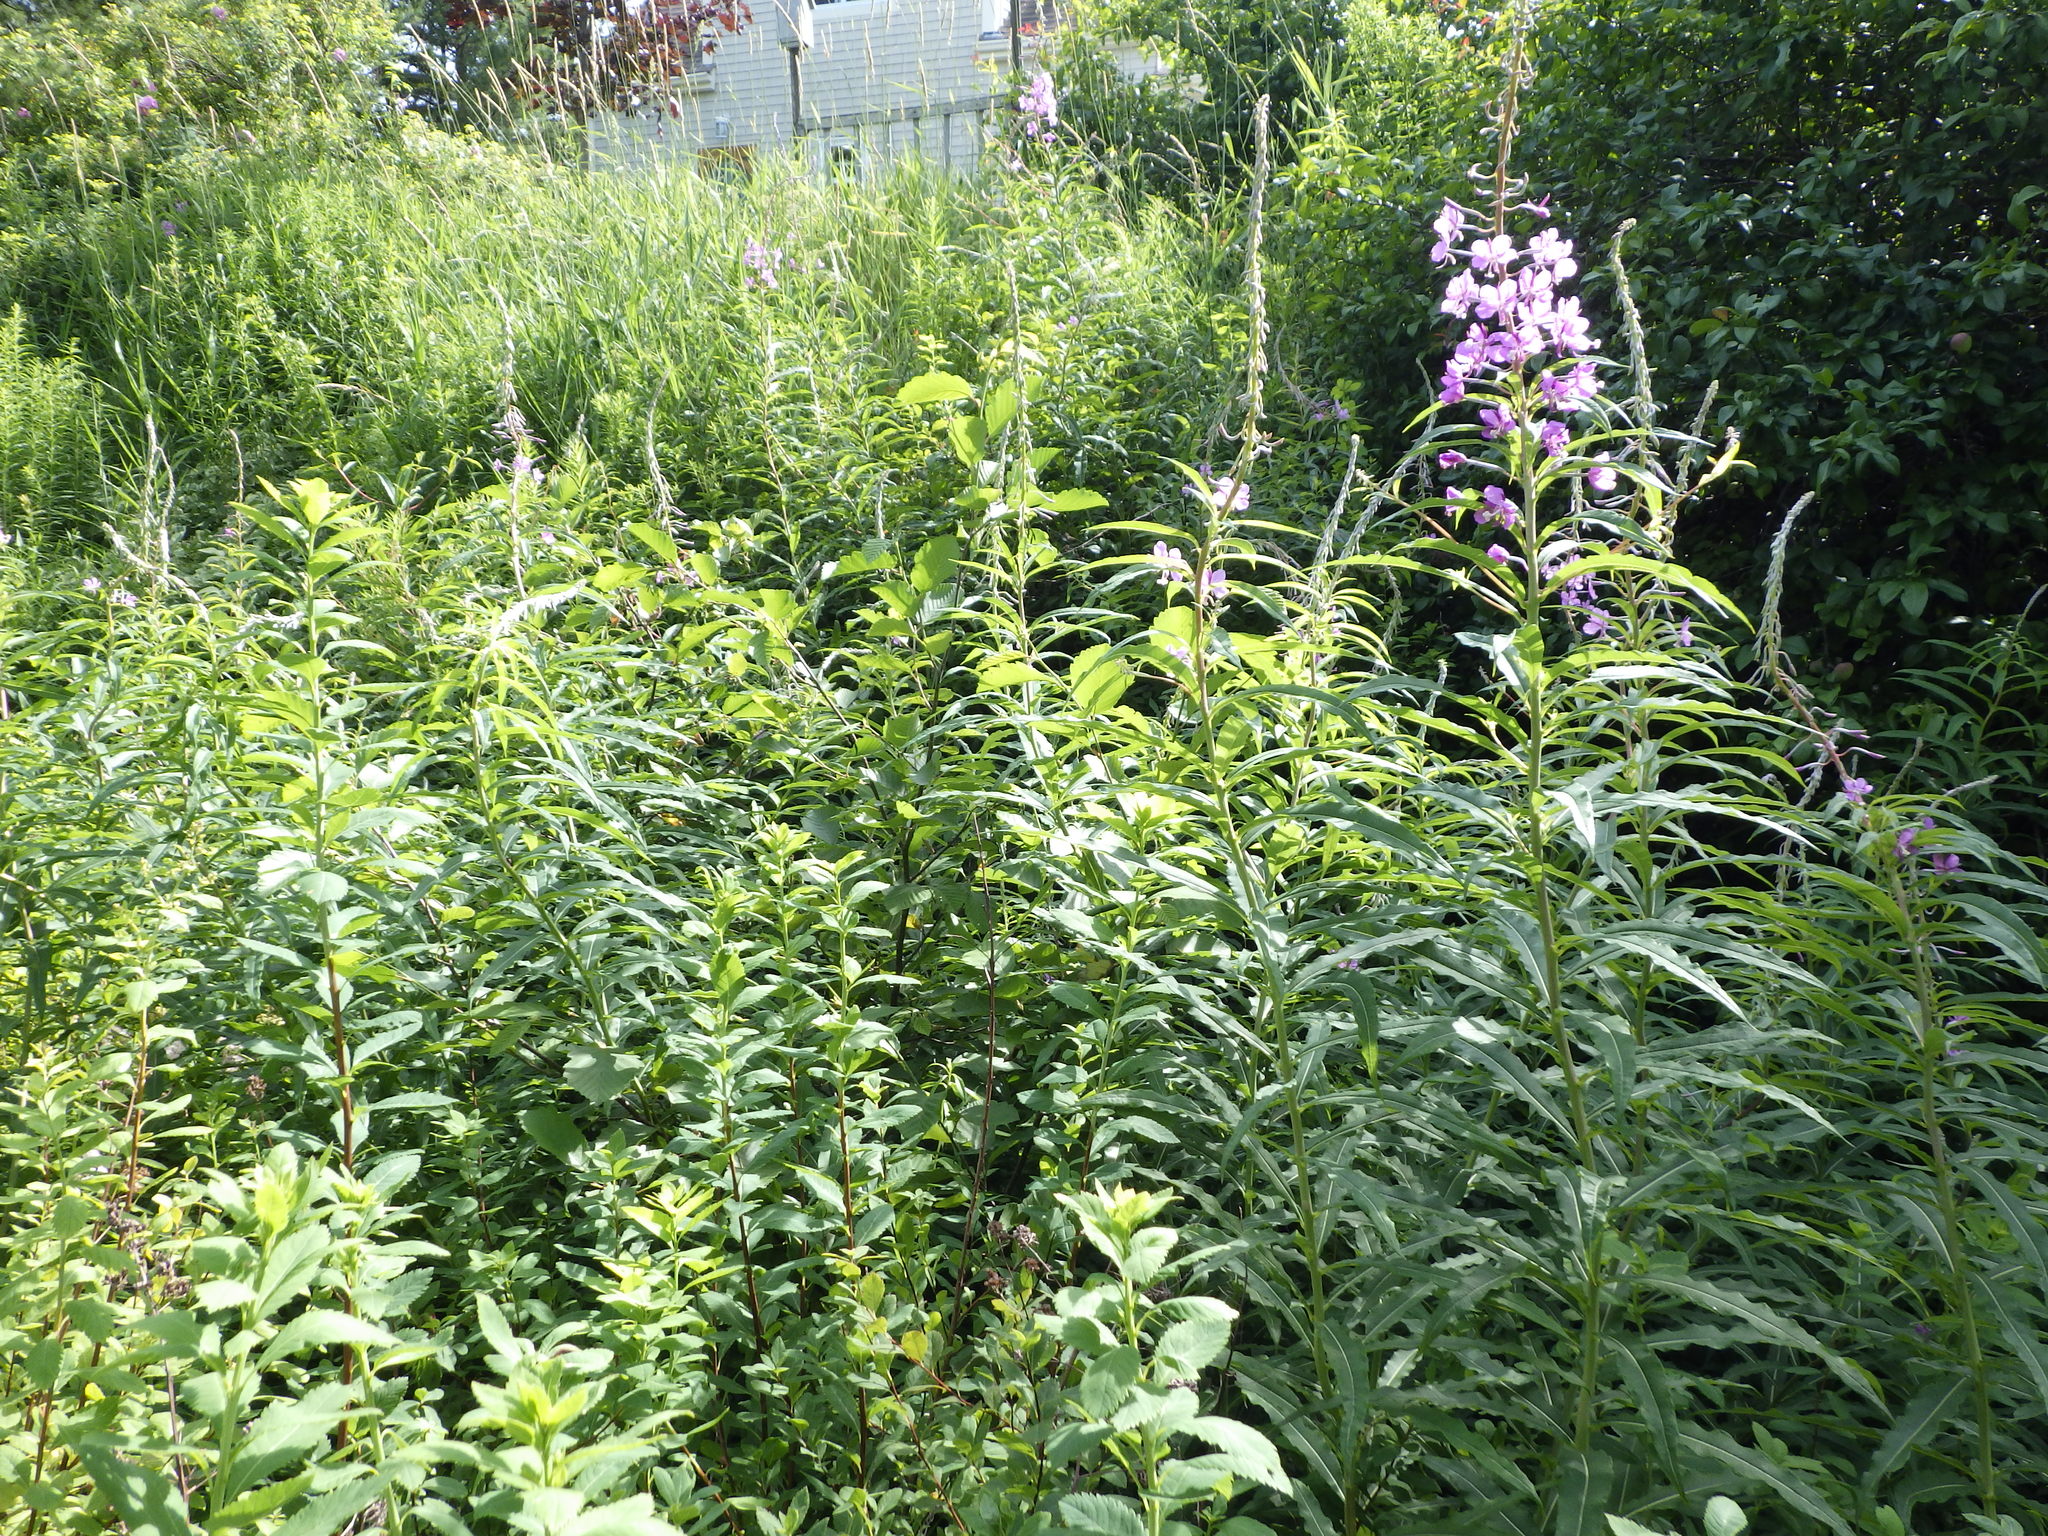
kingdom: Plantae
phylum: Tracheophyta
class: Magnoliopsida
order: Myrtales
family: Onagraceae
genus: Chamaenerion
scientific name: Chamaenerion angustifolium
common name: Fireweed
